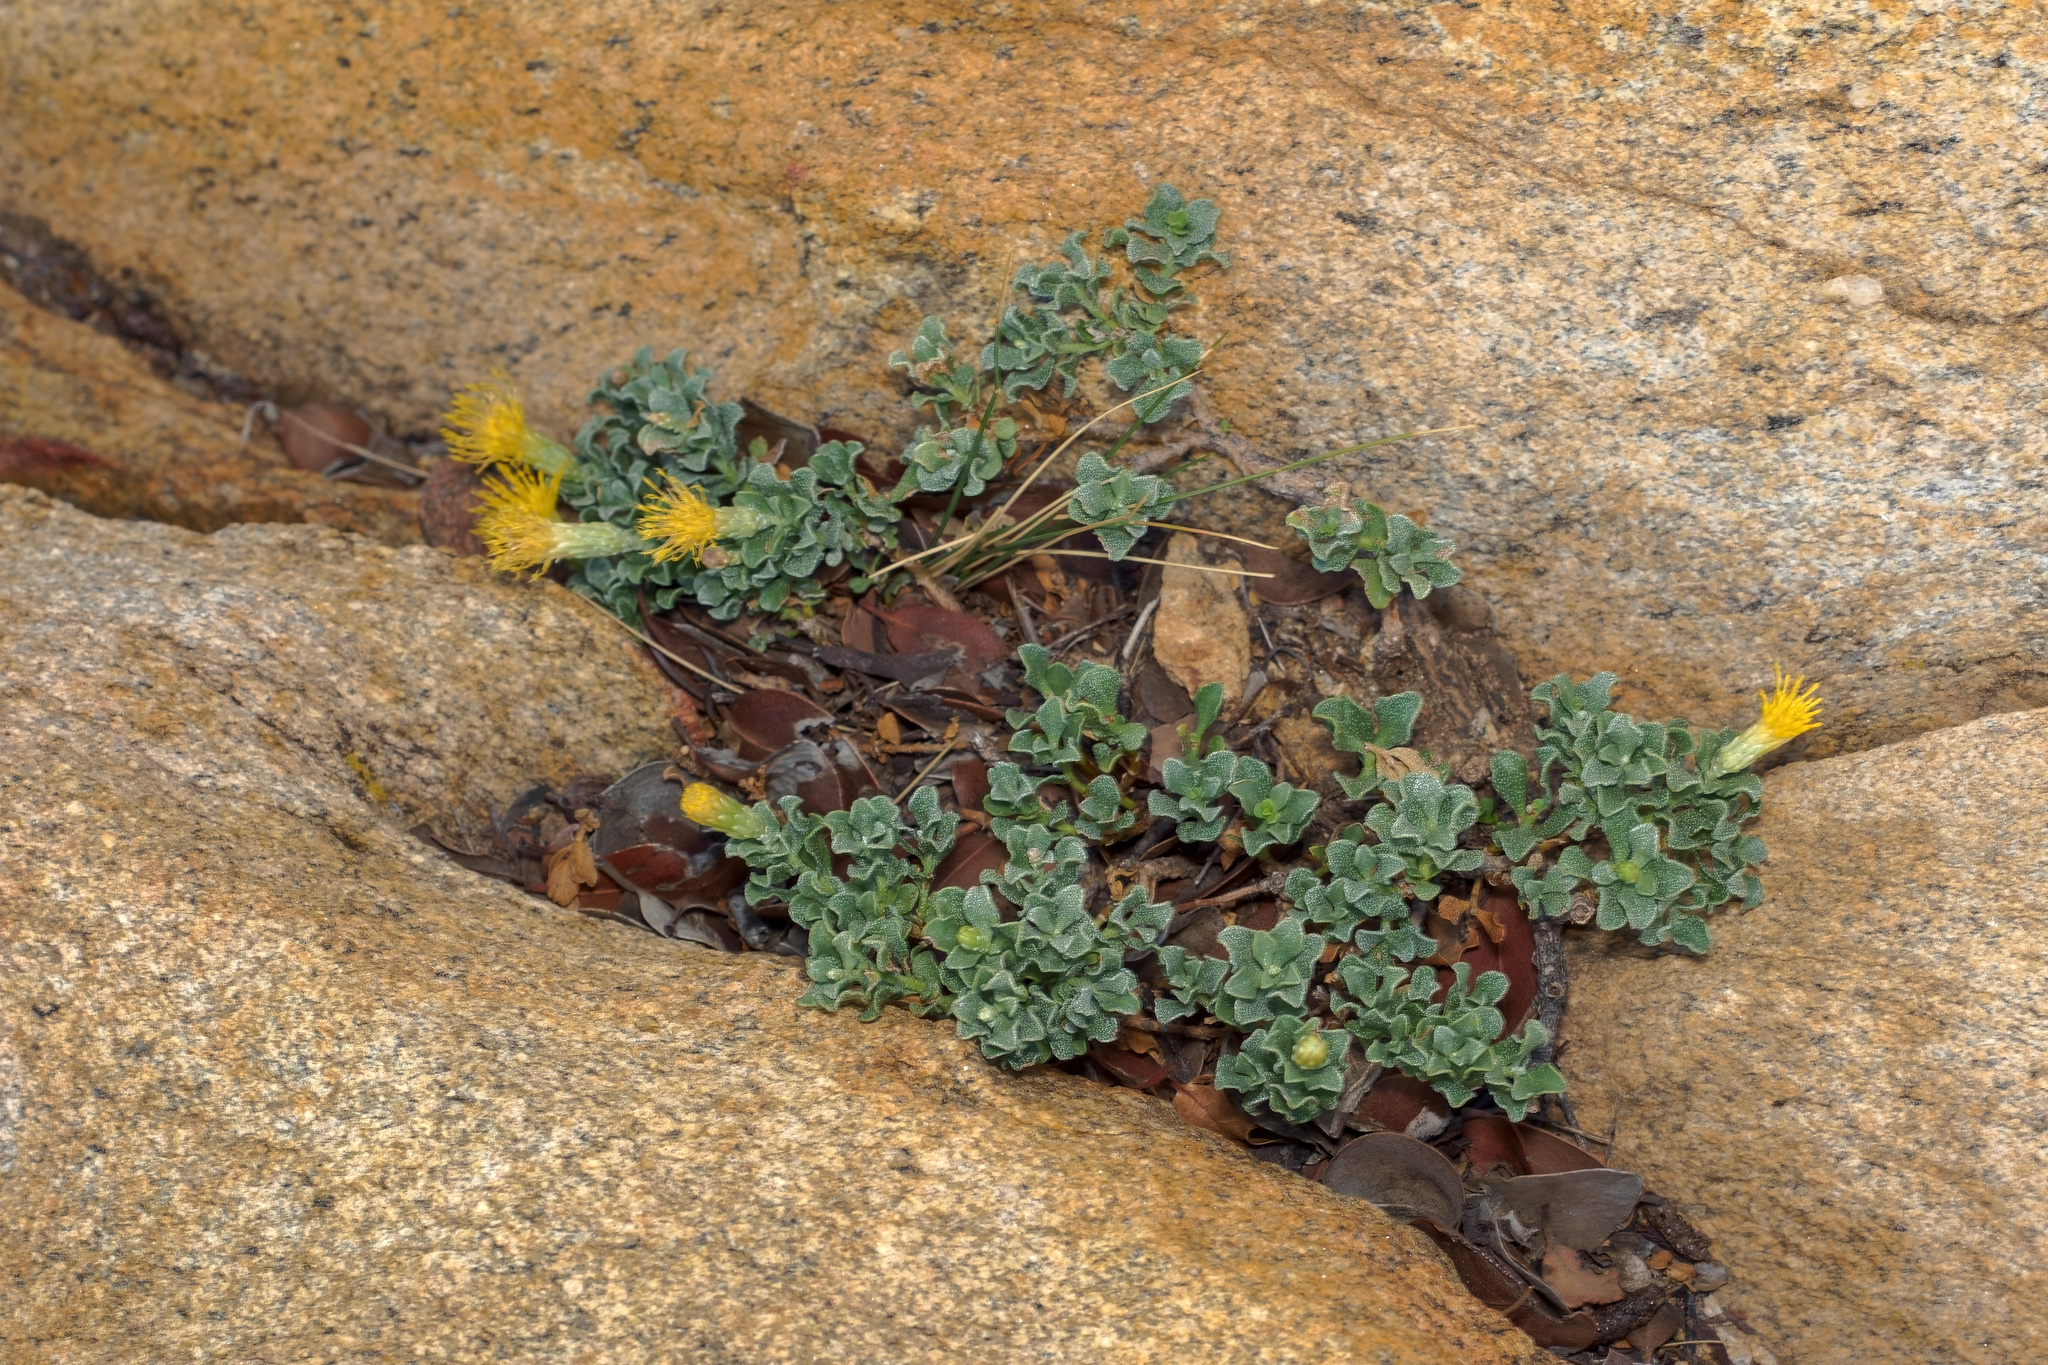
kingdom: Plantae
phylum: Tracheophyta
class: Magnoliopsida
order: Asterales
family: Asteraceae
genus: Ericameria
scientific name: Ericameria cuneata
